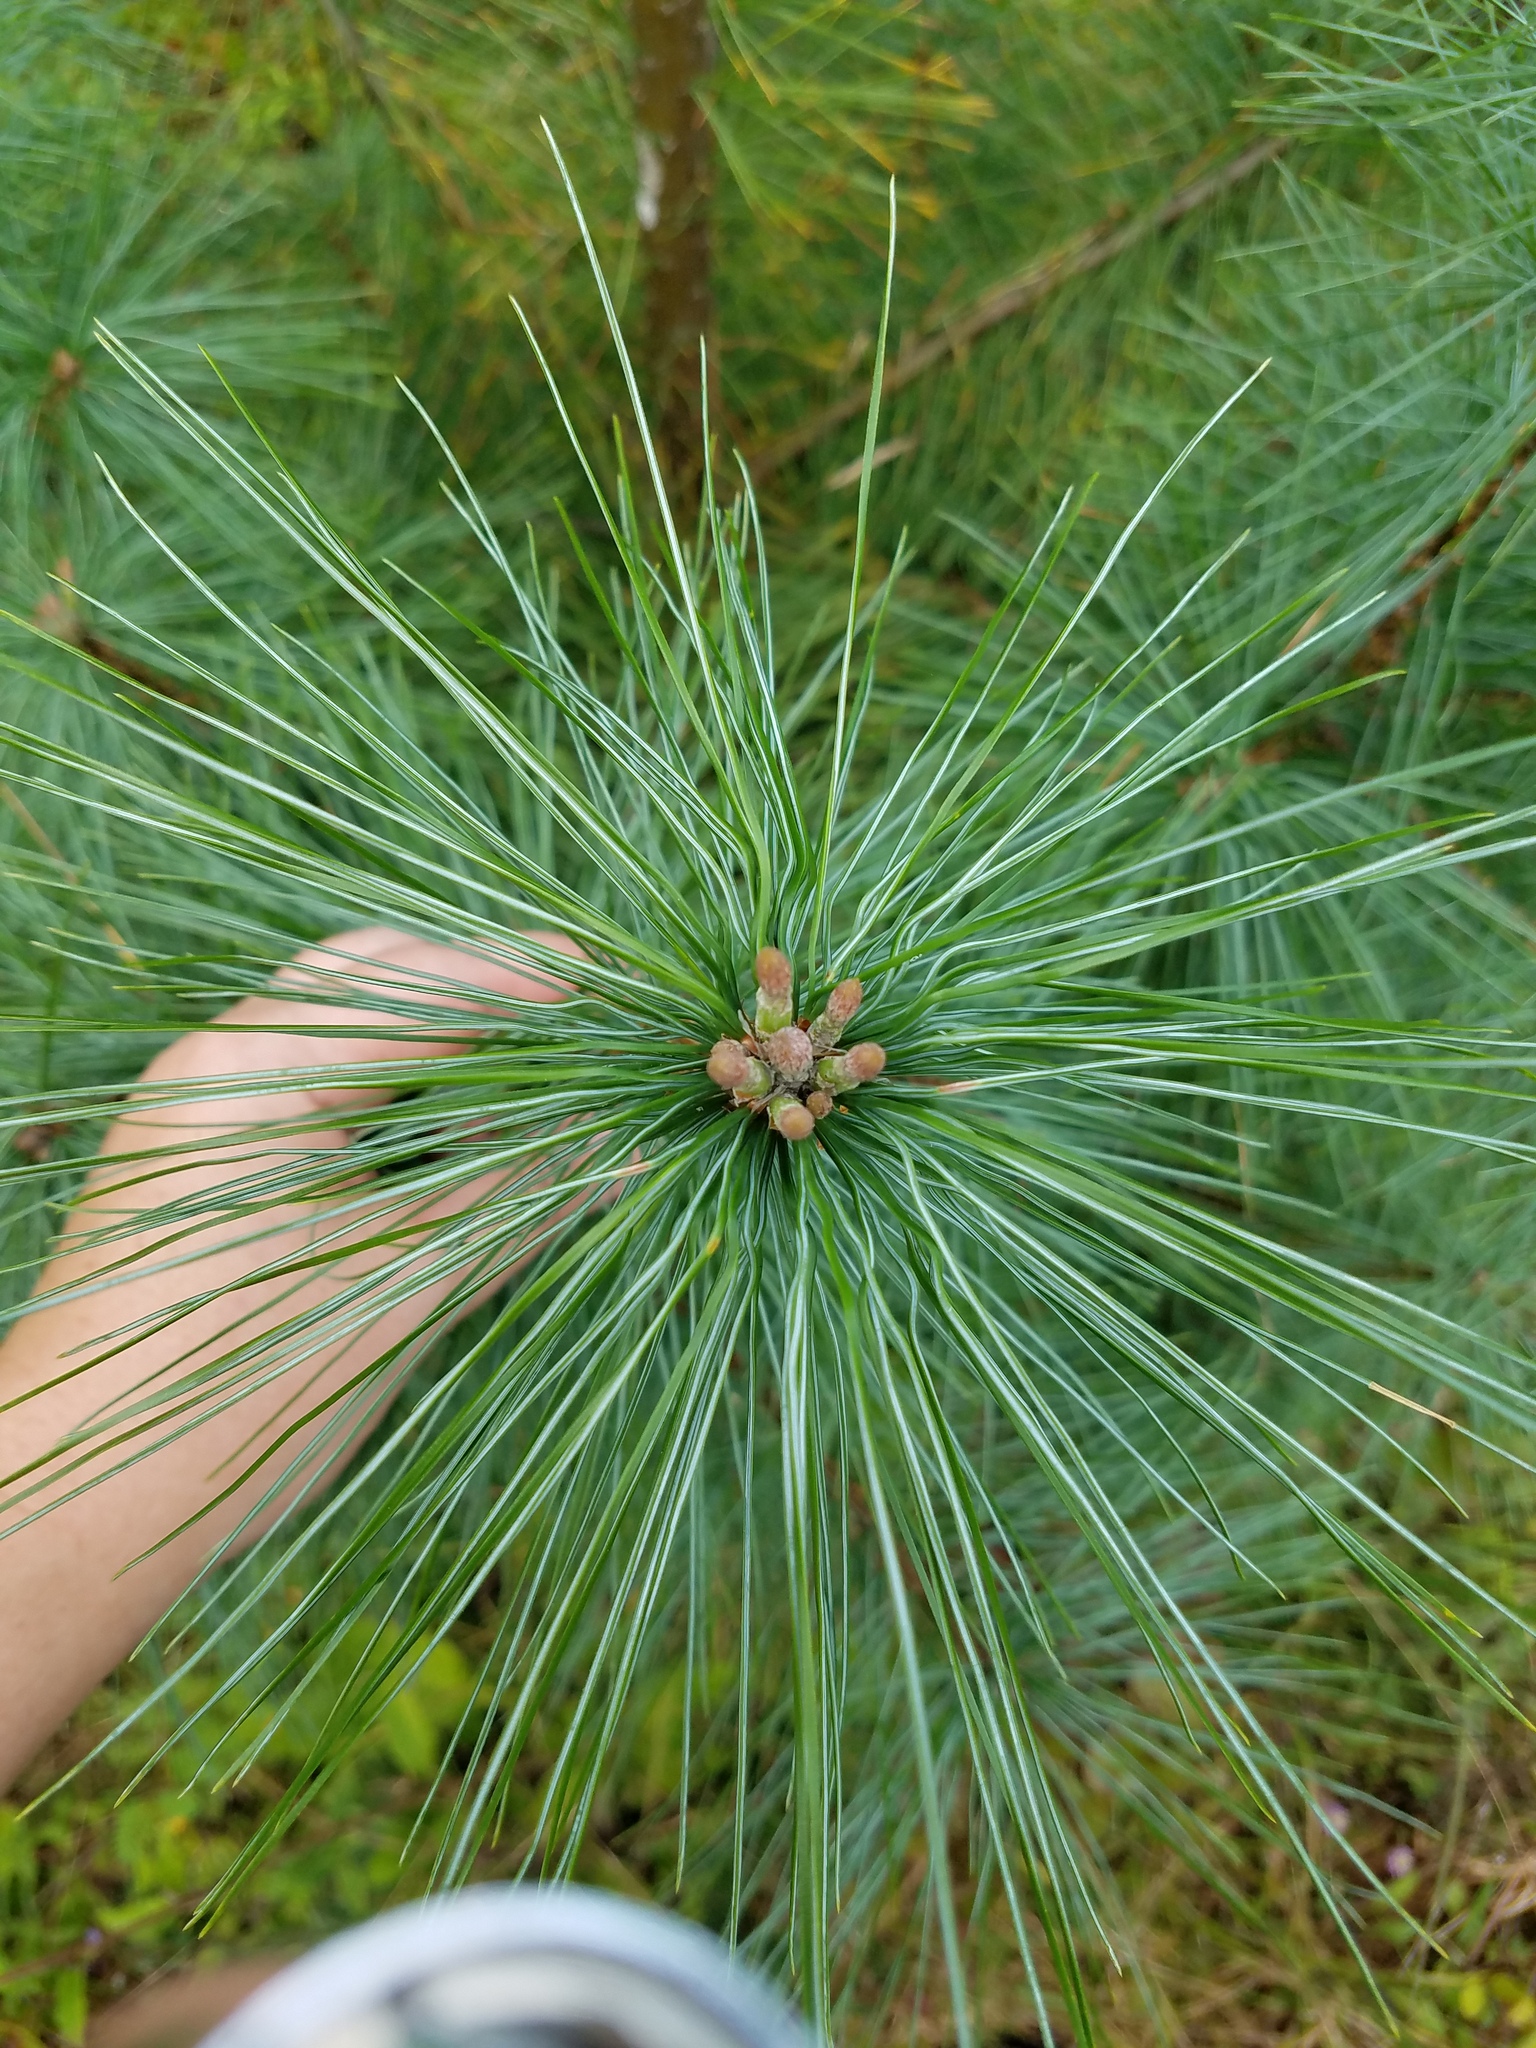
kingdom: Plantae
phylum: Tracheophyta
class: Pinopsida
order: Pinales
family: Pinaceae
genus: Pinus
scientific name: Pinus strobus
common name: Weymouth pine
